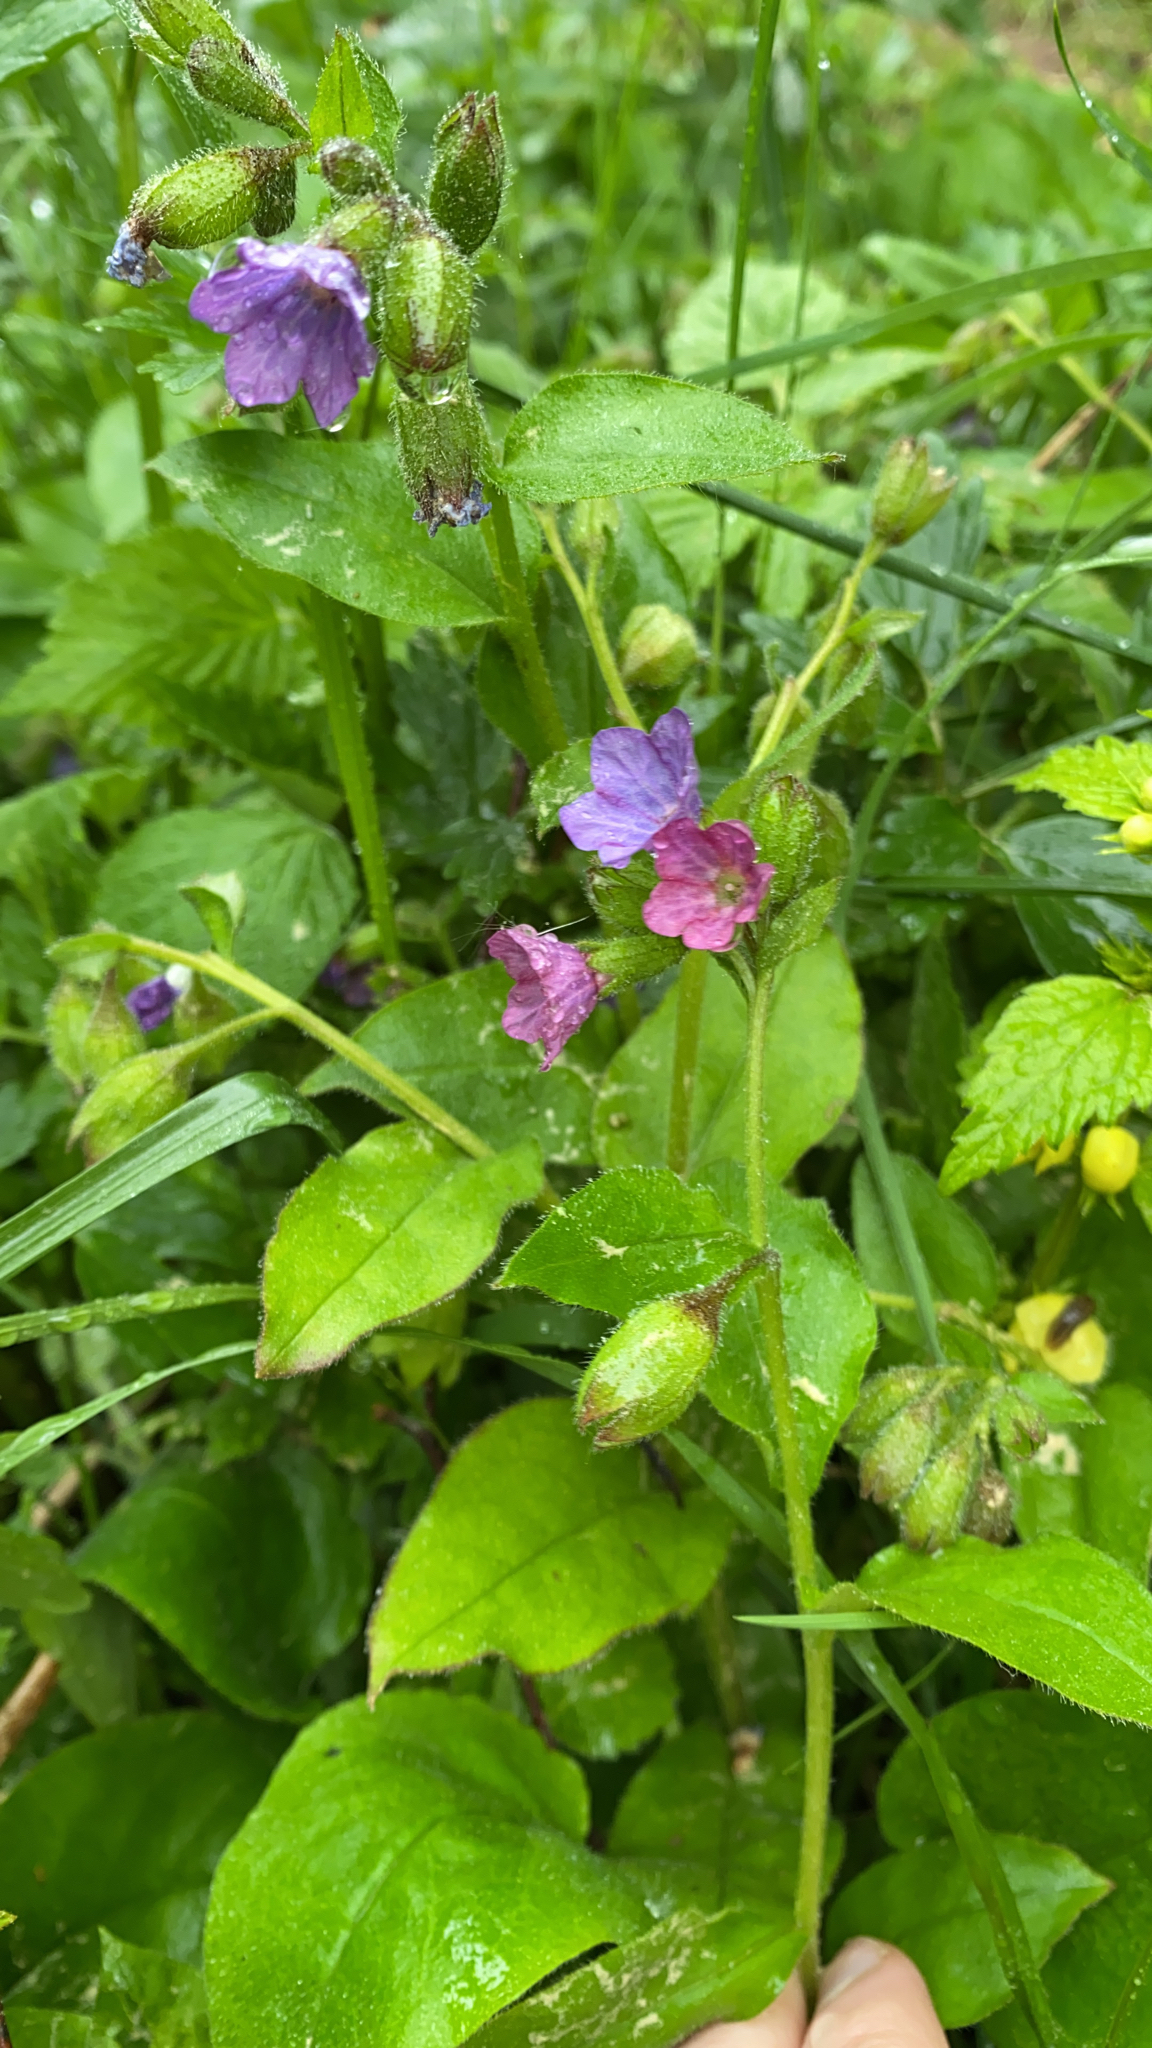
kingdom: Plantae
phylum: Tracheophyta
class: Magnoliopsida
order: Boraginales
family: Boraginaceae
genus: Pulmonaria
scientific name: Pulmonaria obscura
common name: Suffolk lungwort
